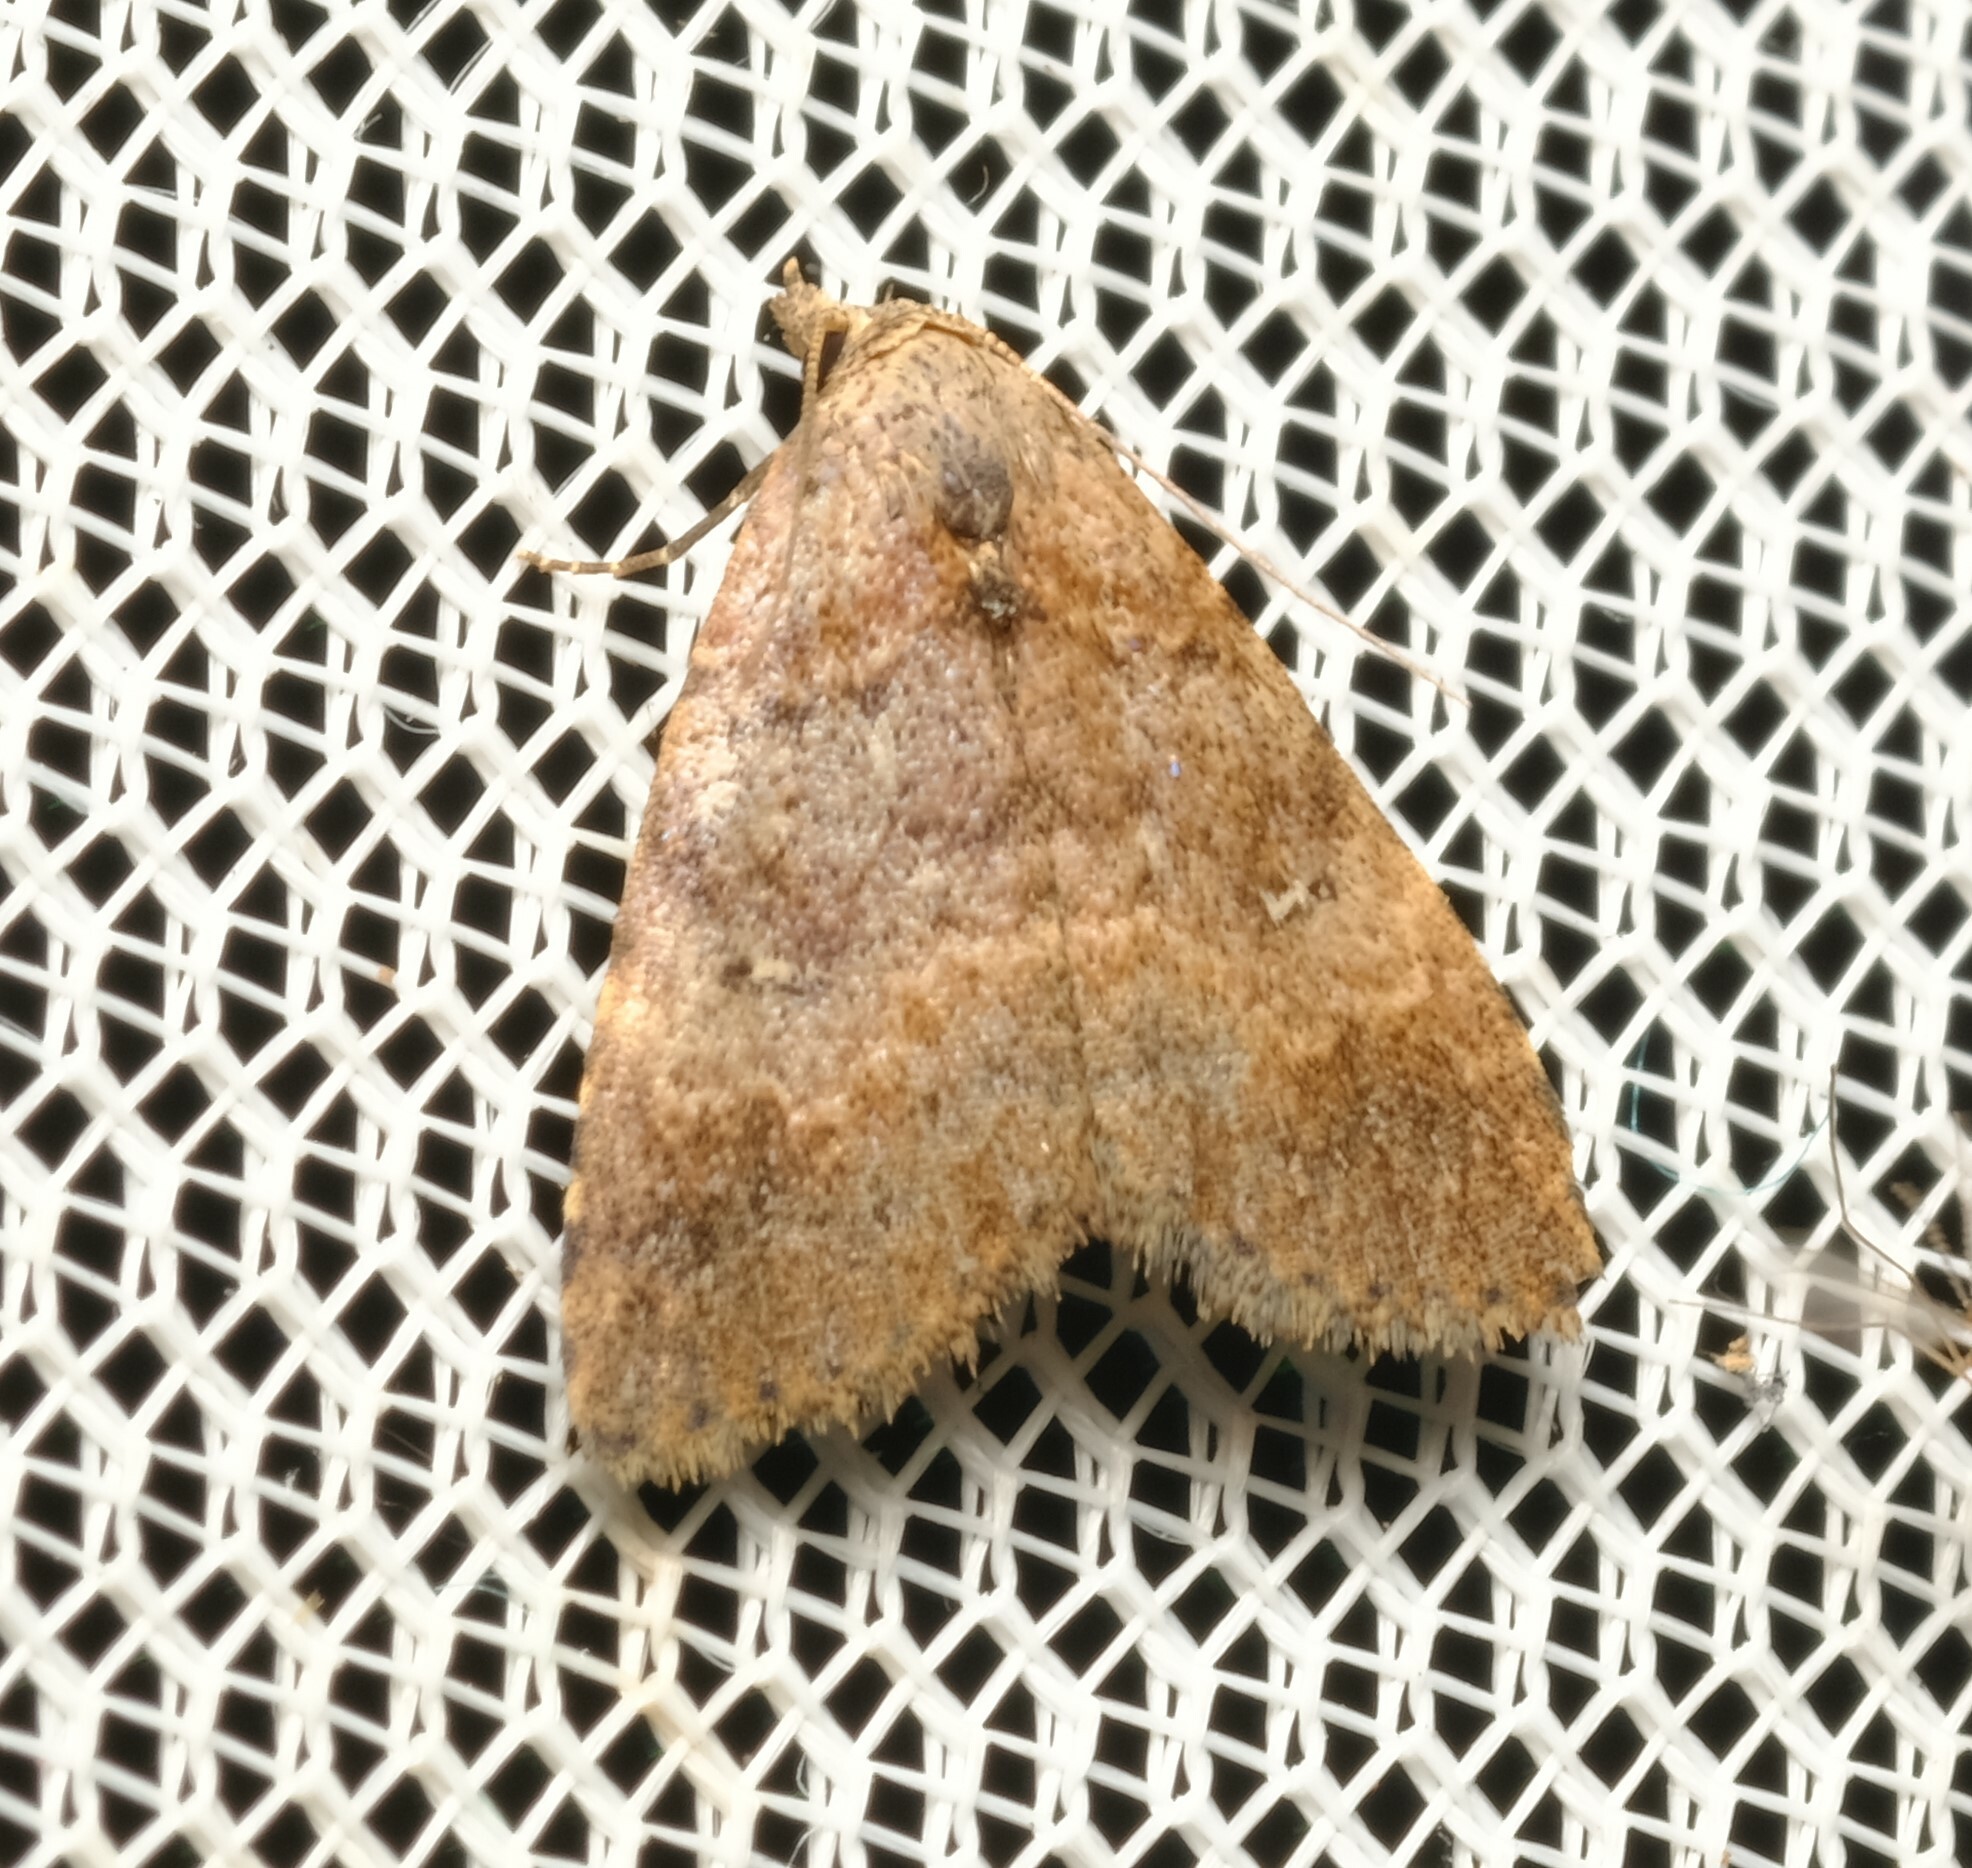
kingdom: Animalia
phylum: Arthropoda
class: Insecta
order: Lepidoptera
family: Erebidae
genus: Alapadna
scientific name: Alapadna pauropis
